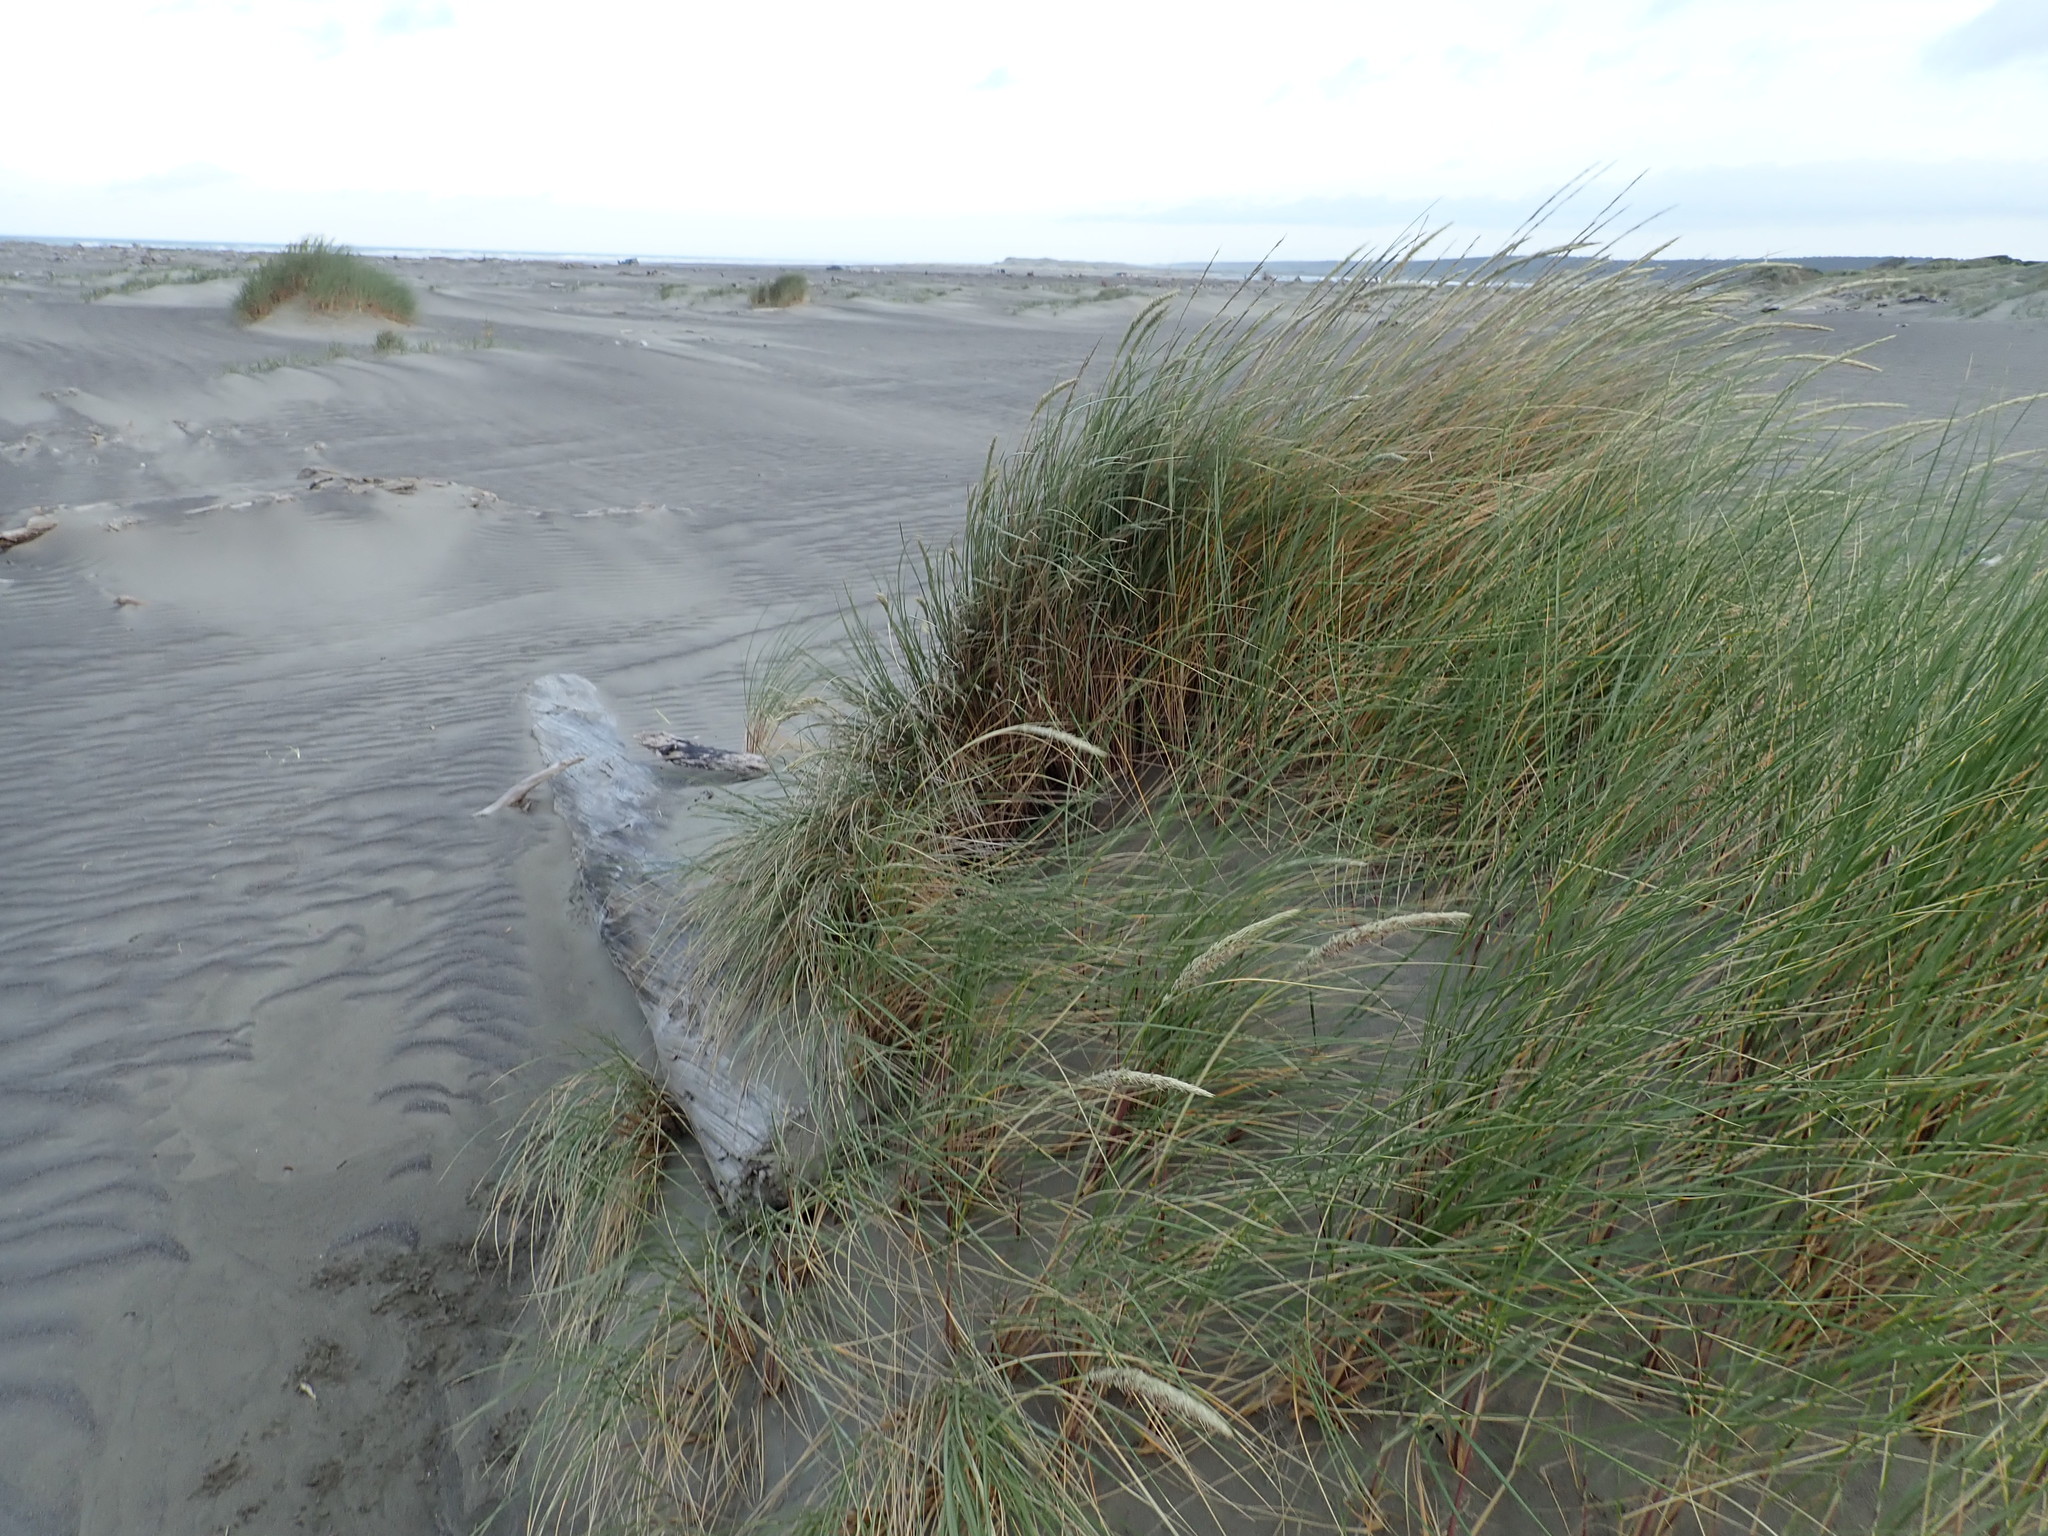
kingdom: Plantae
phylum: Tracheophyta
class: Liliopsida
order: Poales
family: Poaceae
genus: Calamagrostis
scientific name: Calamagrostis arenaria
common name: European beachgrass
